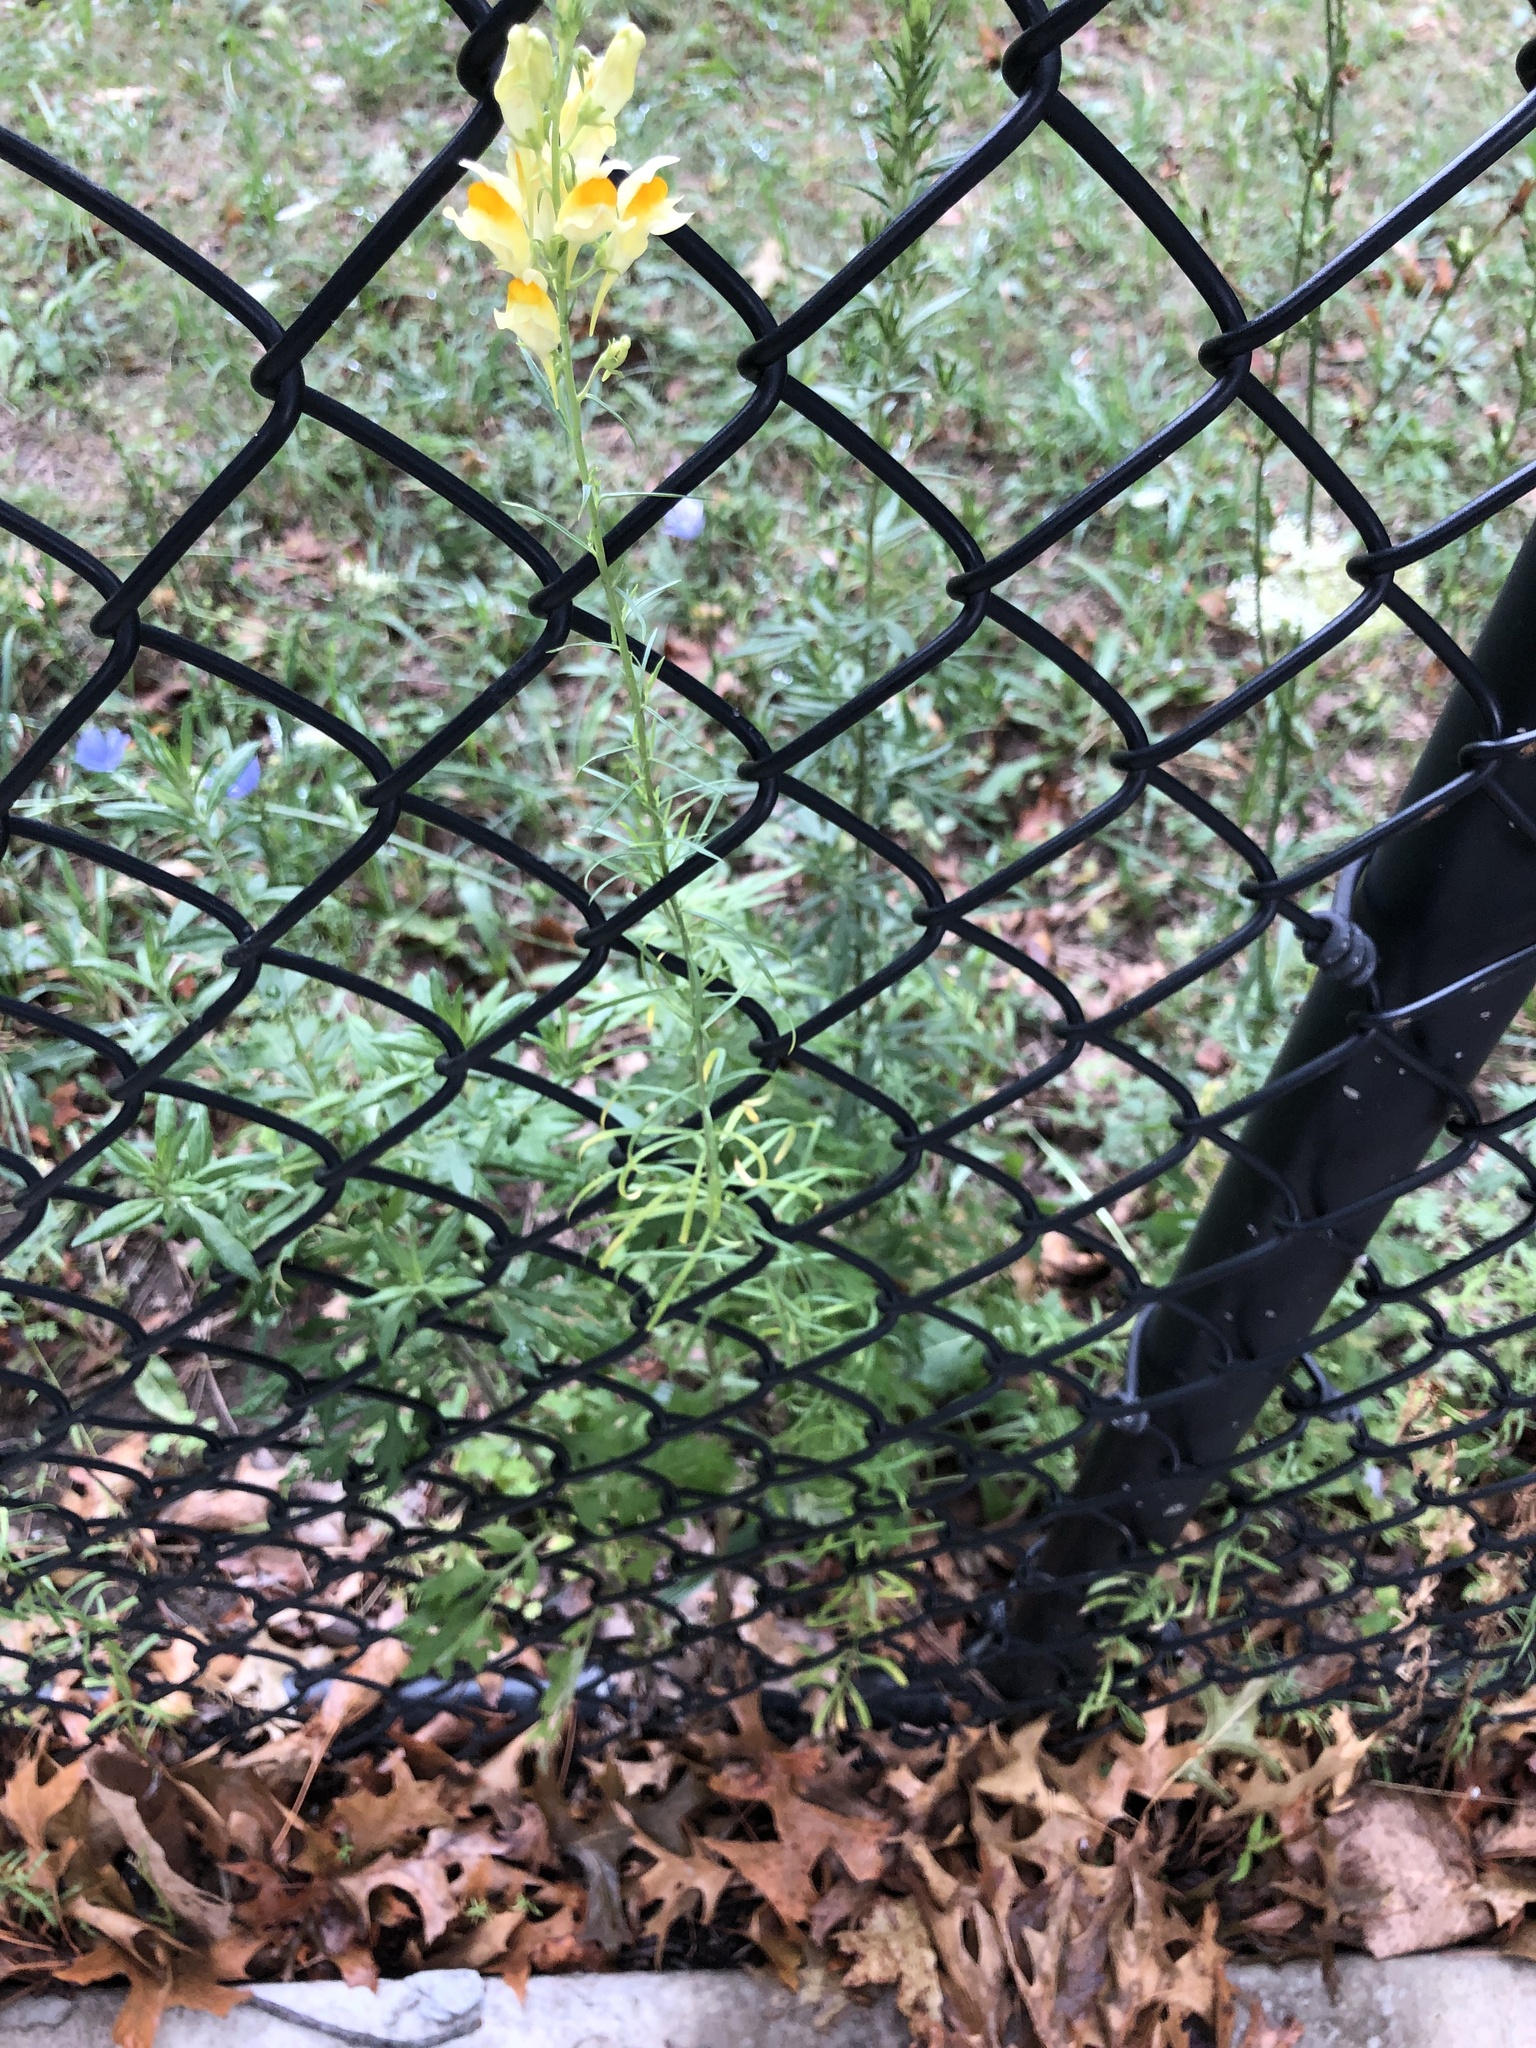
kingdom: Plantae
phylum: Tracheophyta
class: Magnoliopsida
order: Lamiales
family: Plantaginaceae
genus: Linaria
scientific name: Linaria vulgaris
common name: Butter and eggs
